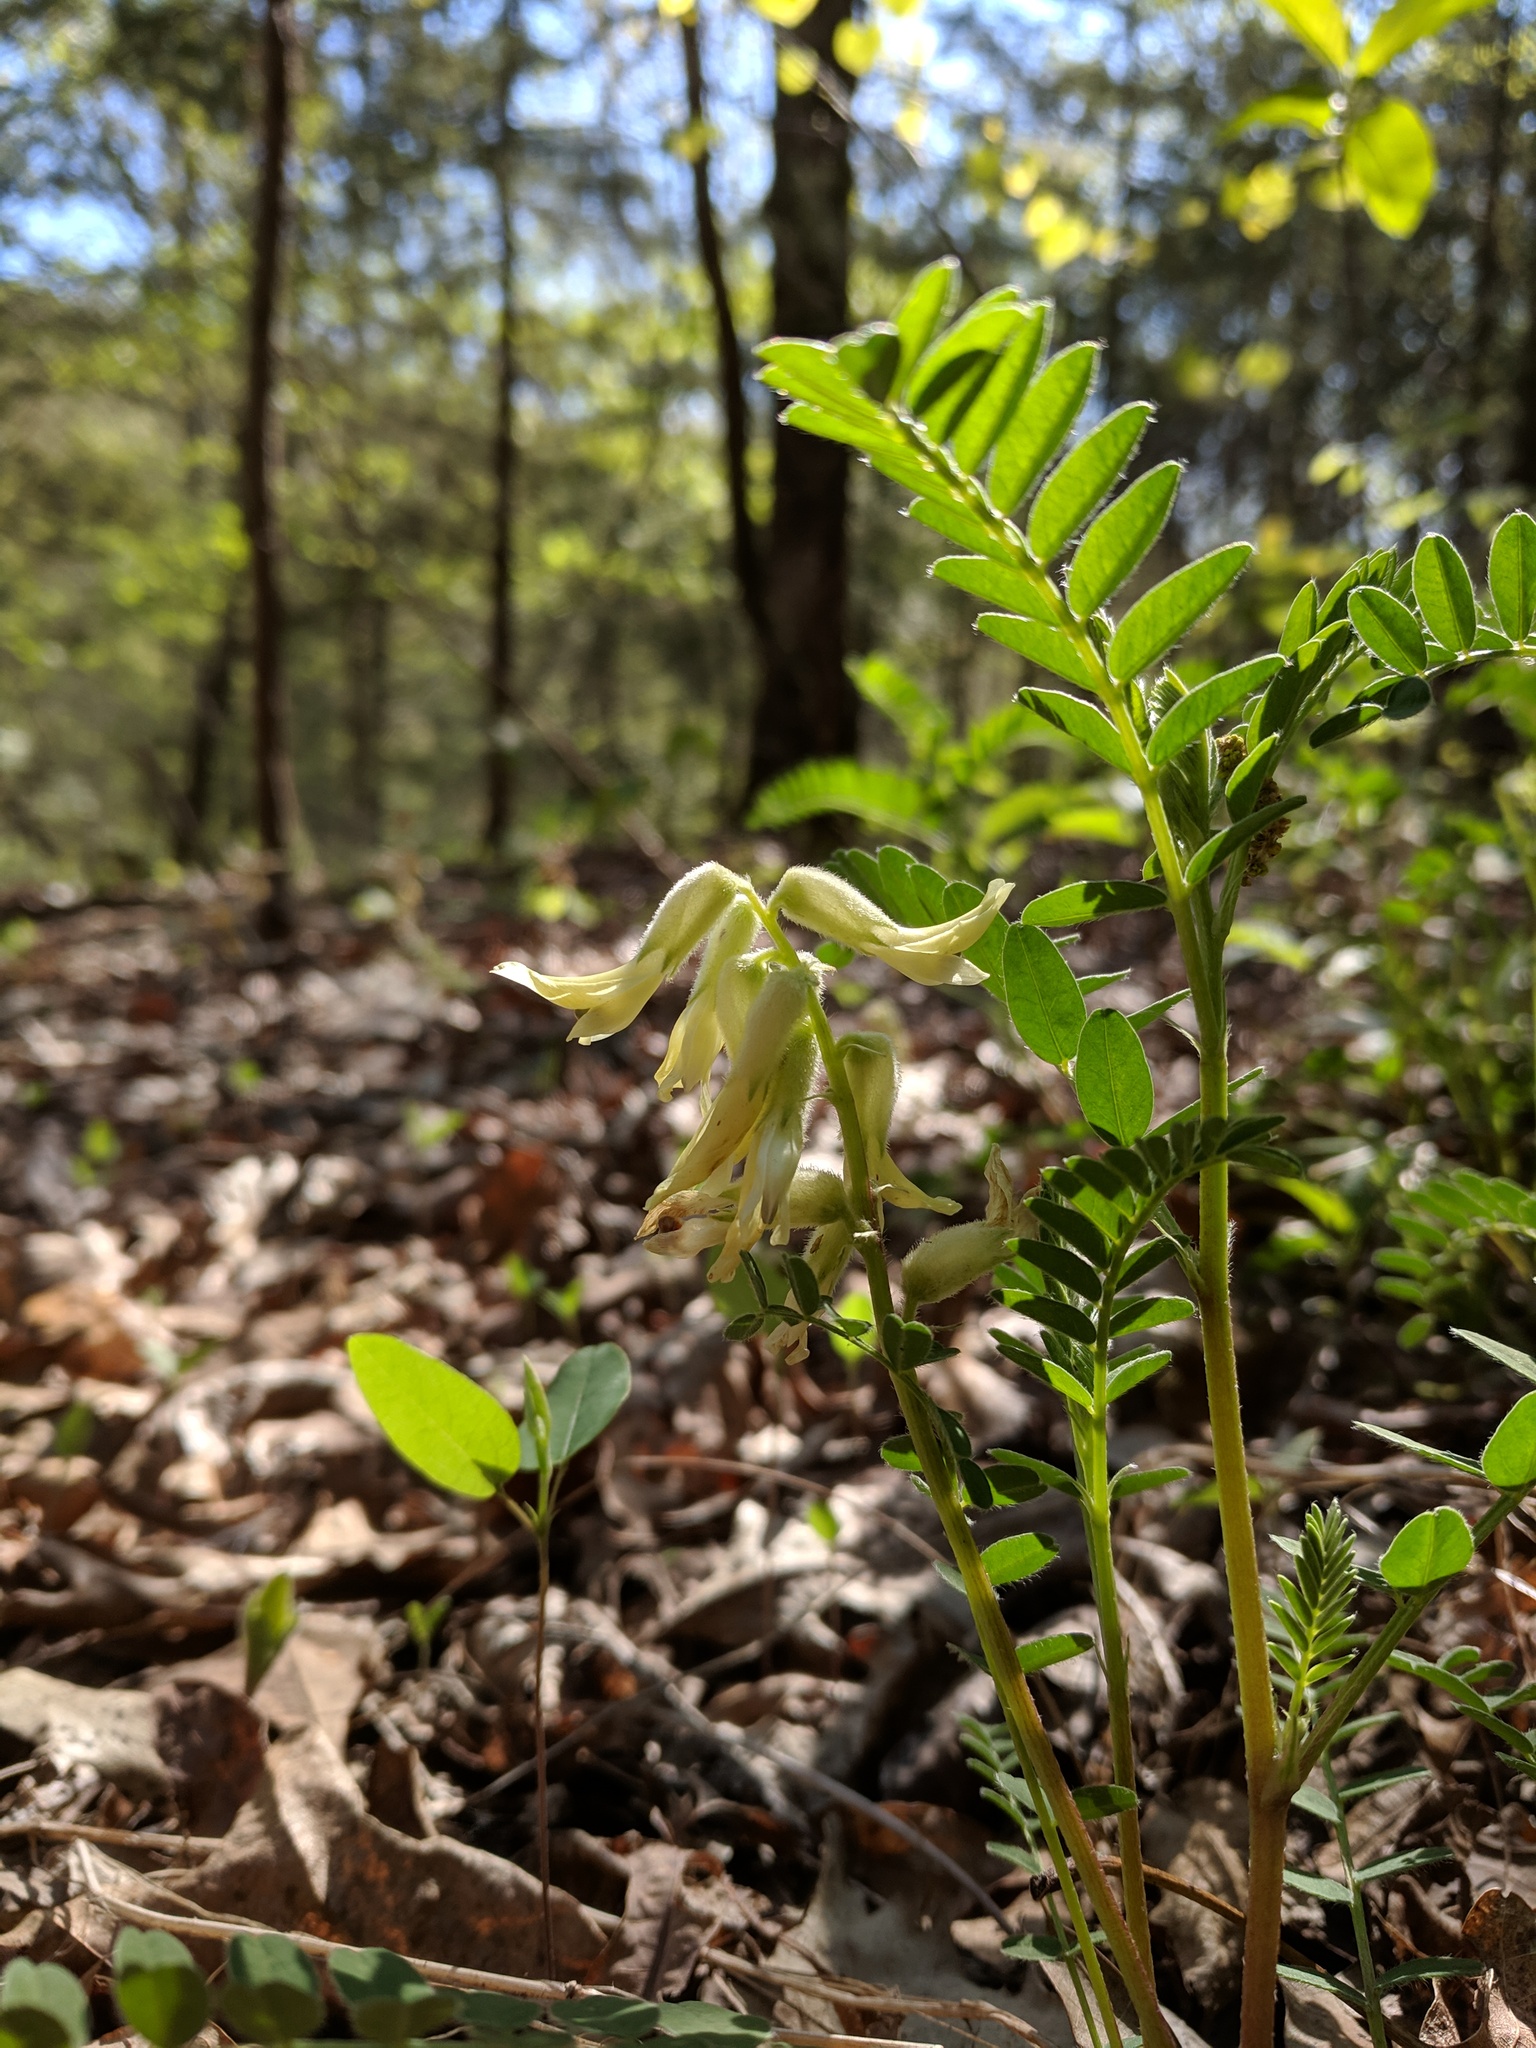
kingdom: Plantae
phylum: Tracheophyta
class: Magnoliopsida
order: Fabales
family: Fabaceae
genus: Astragalus
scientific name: Astragalus crassicarpus
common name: Ground-plum milk-vetch
